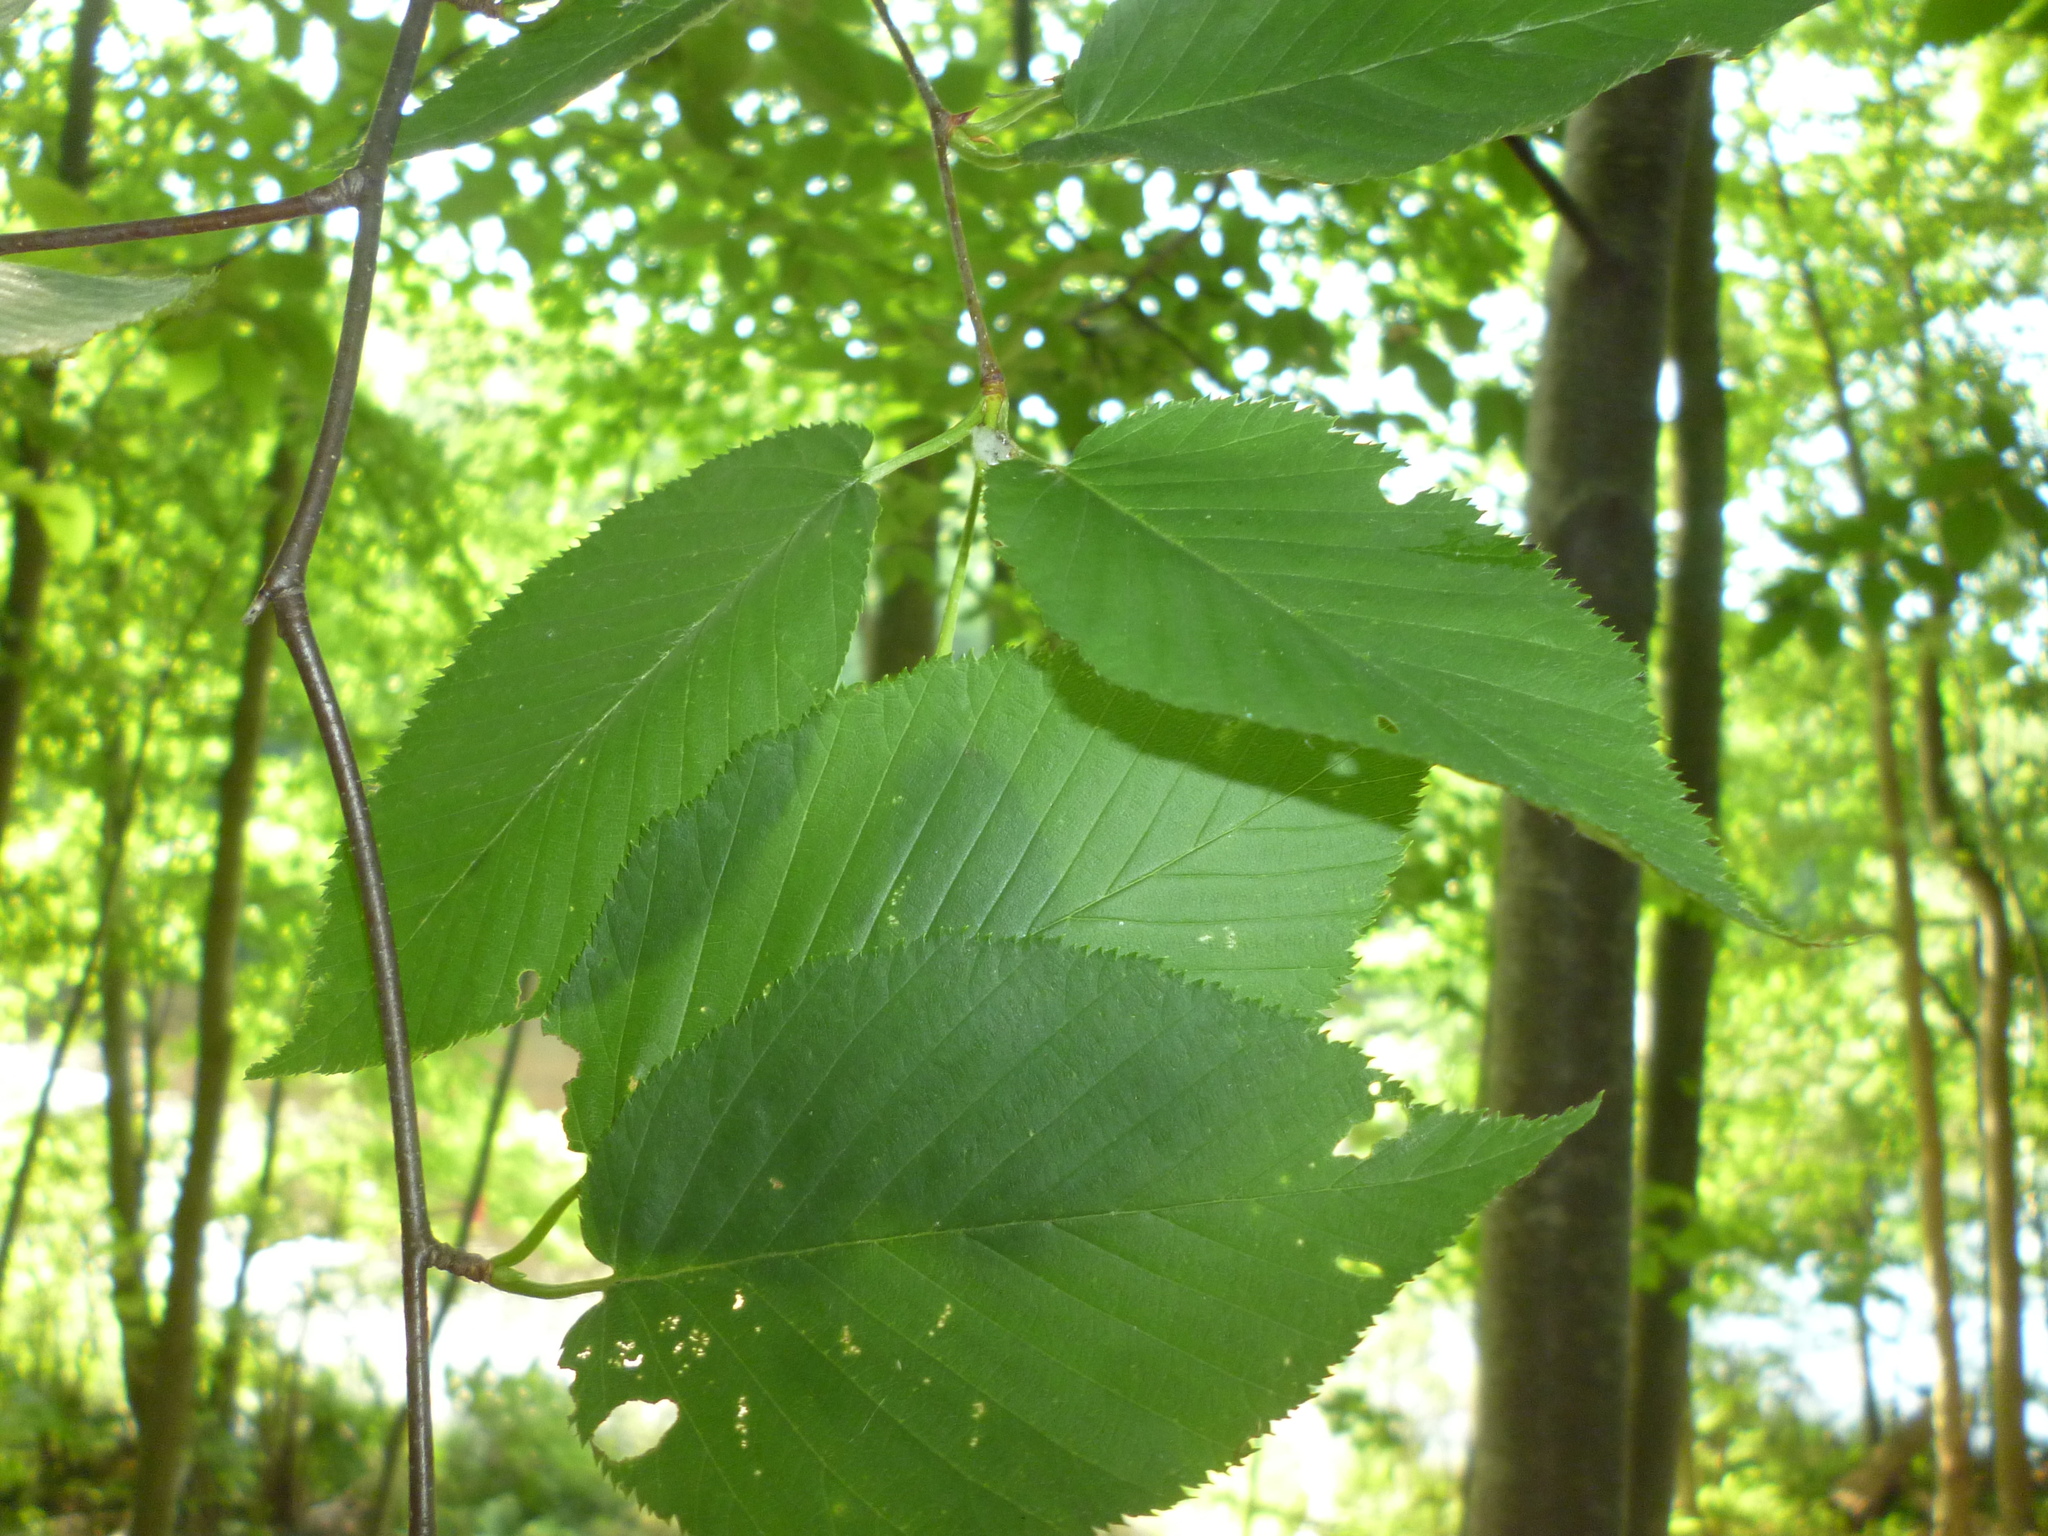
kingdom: Plantae
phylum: Tracheophyta
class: Magnoliopsida
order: Fagales
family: Betulaceae
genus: Betula
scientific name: Betula lenta
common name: Black birch
